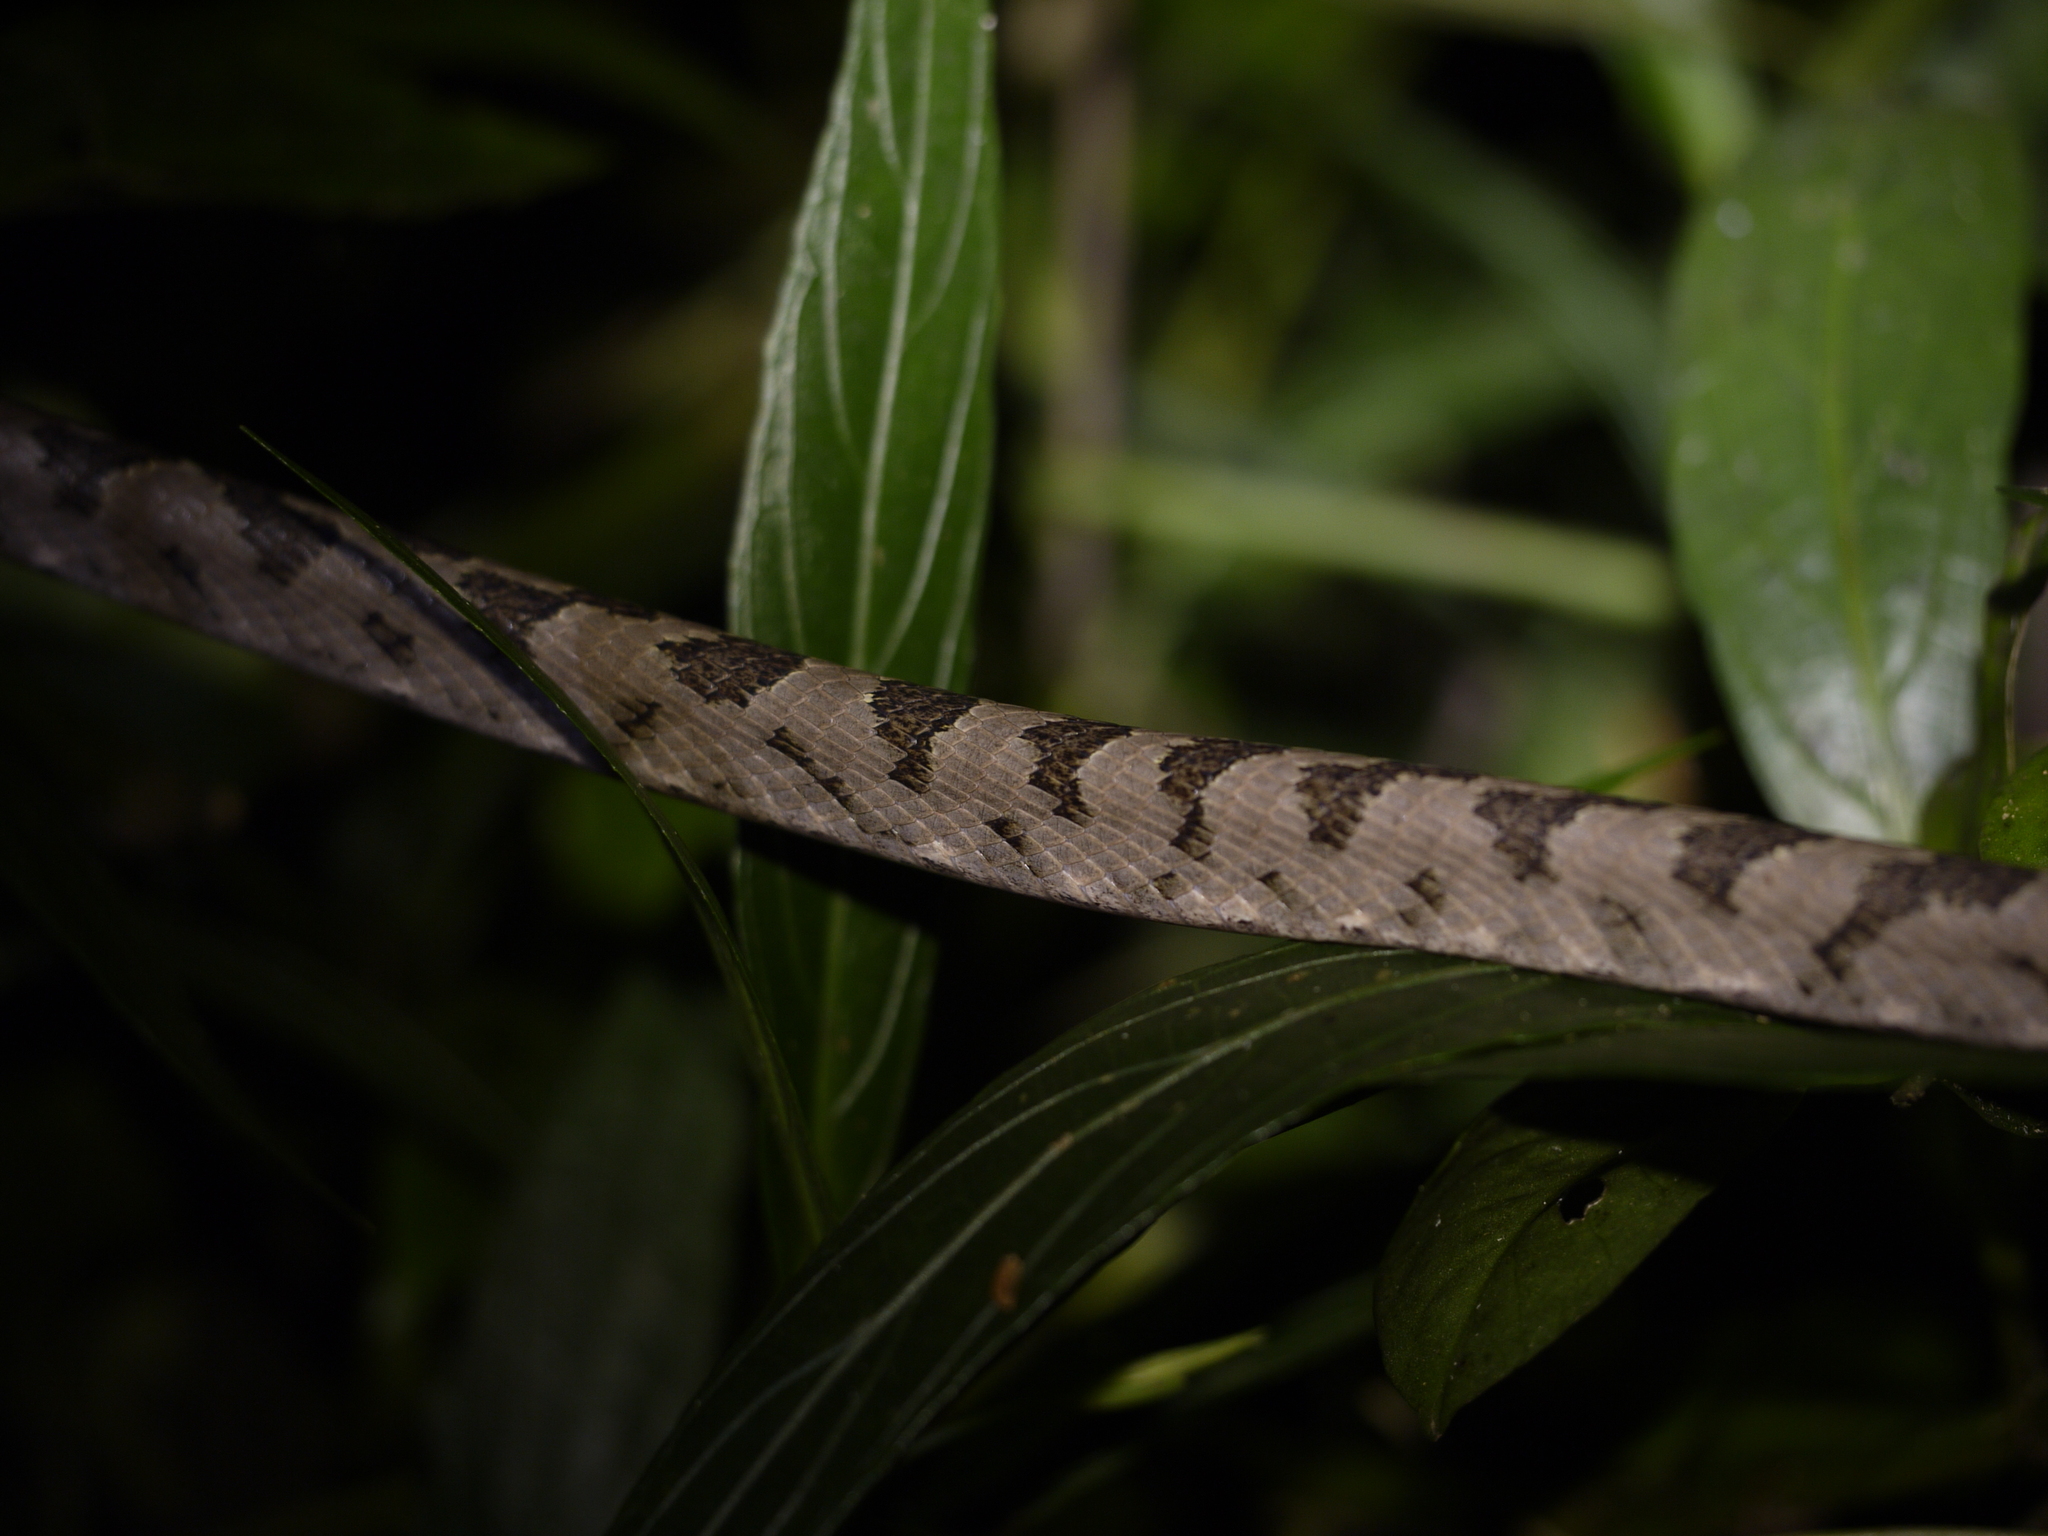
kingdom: Animalia
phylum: Chordata
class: Squamata
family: Colubridae
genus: Boiga
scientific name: Boiga kraepelini
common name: Kelung cat snake
